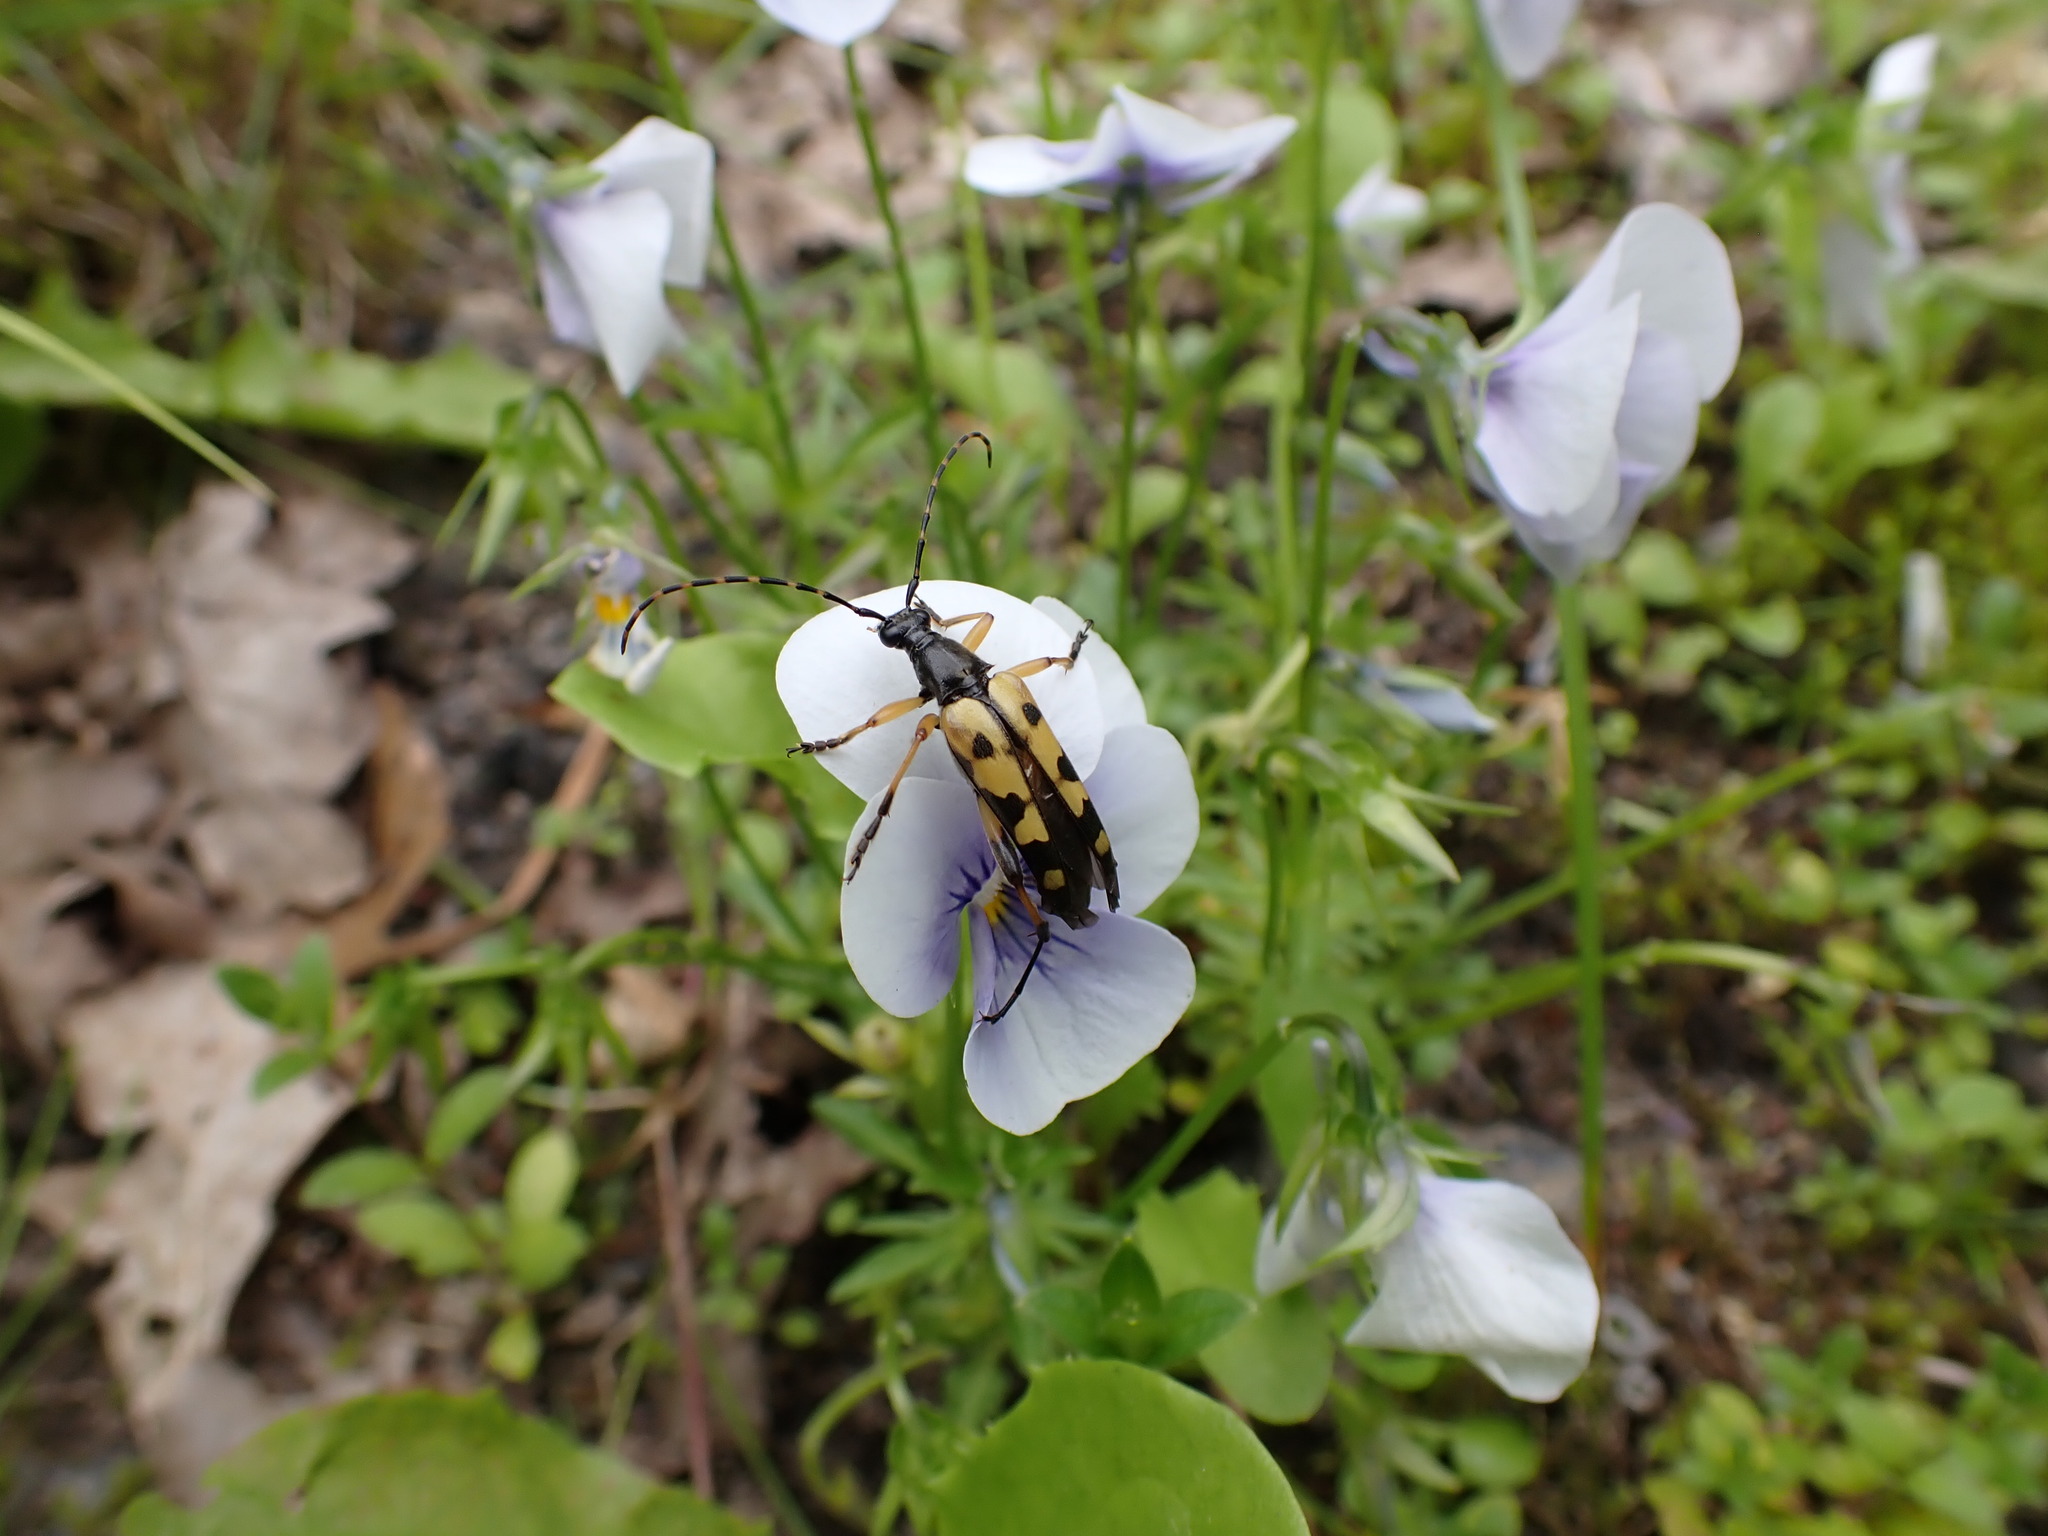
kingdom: Animalia
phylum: Arthropoda
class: Insecta
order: Coleoptera
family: Cerambycidae
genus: Rutpela
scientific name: Rutpela maculata
